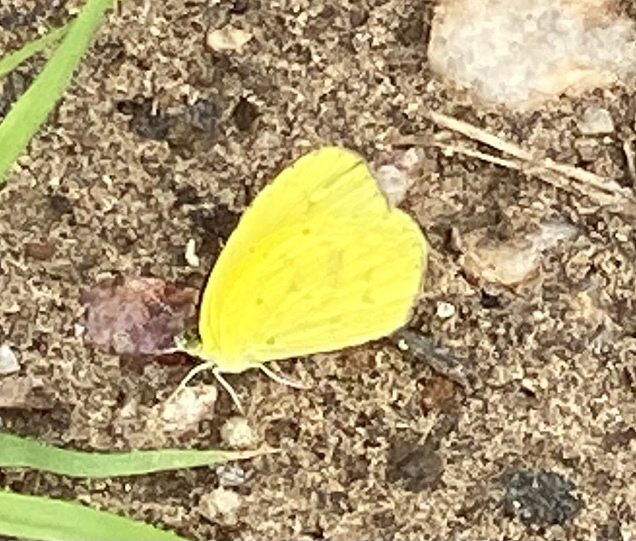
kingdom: Animalia
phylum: Arthropoda
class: Insecta
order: Lepidoptera
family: Pieridae
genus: Eurema
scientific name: Eurema brigitta
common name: Small grass yellow
